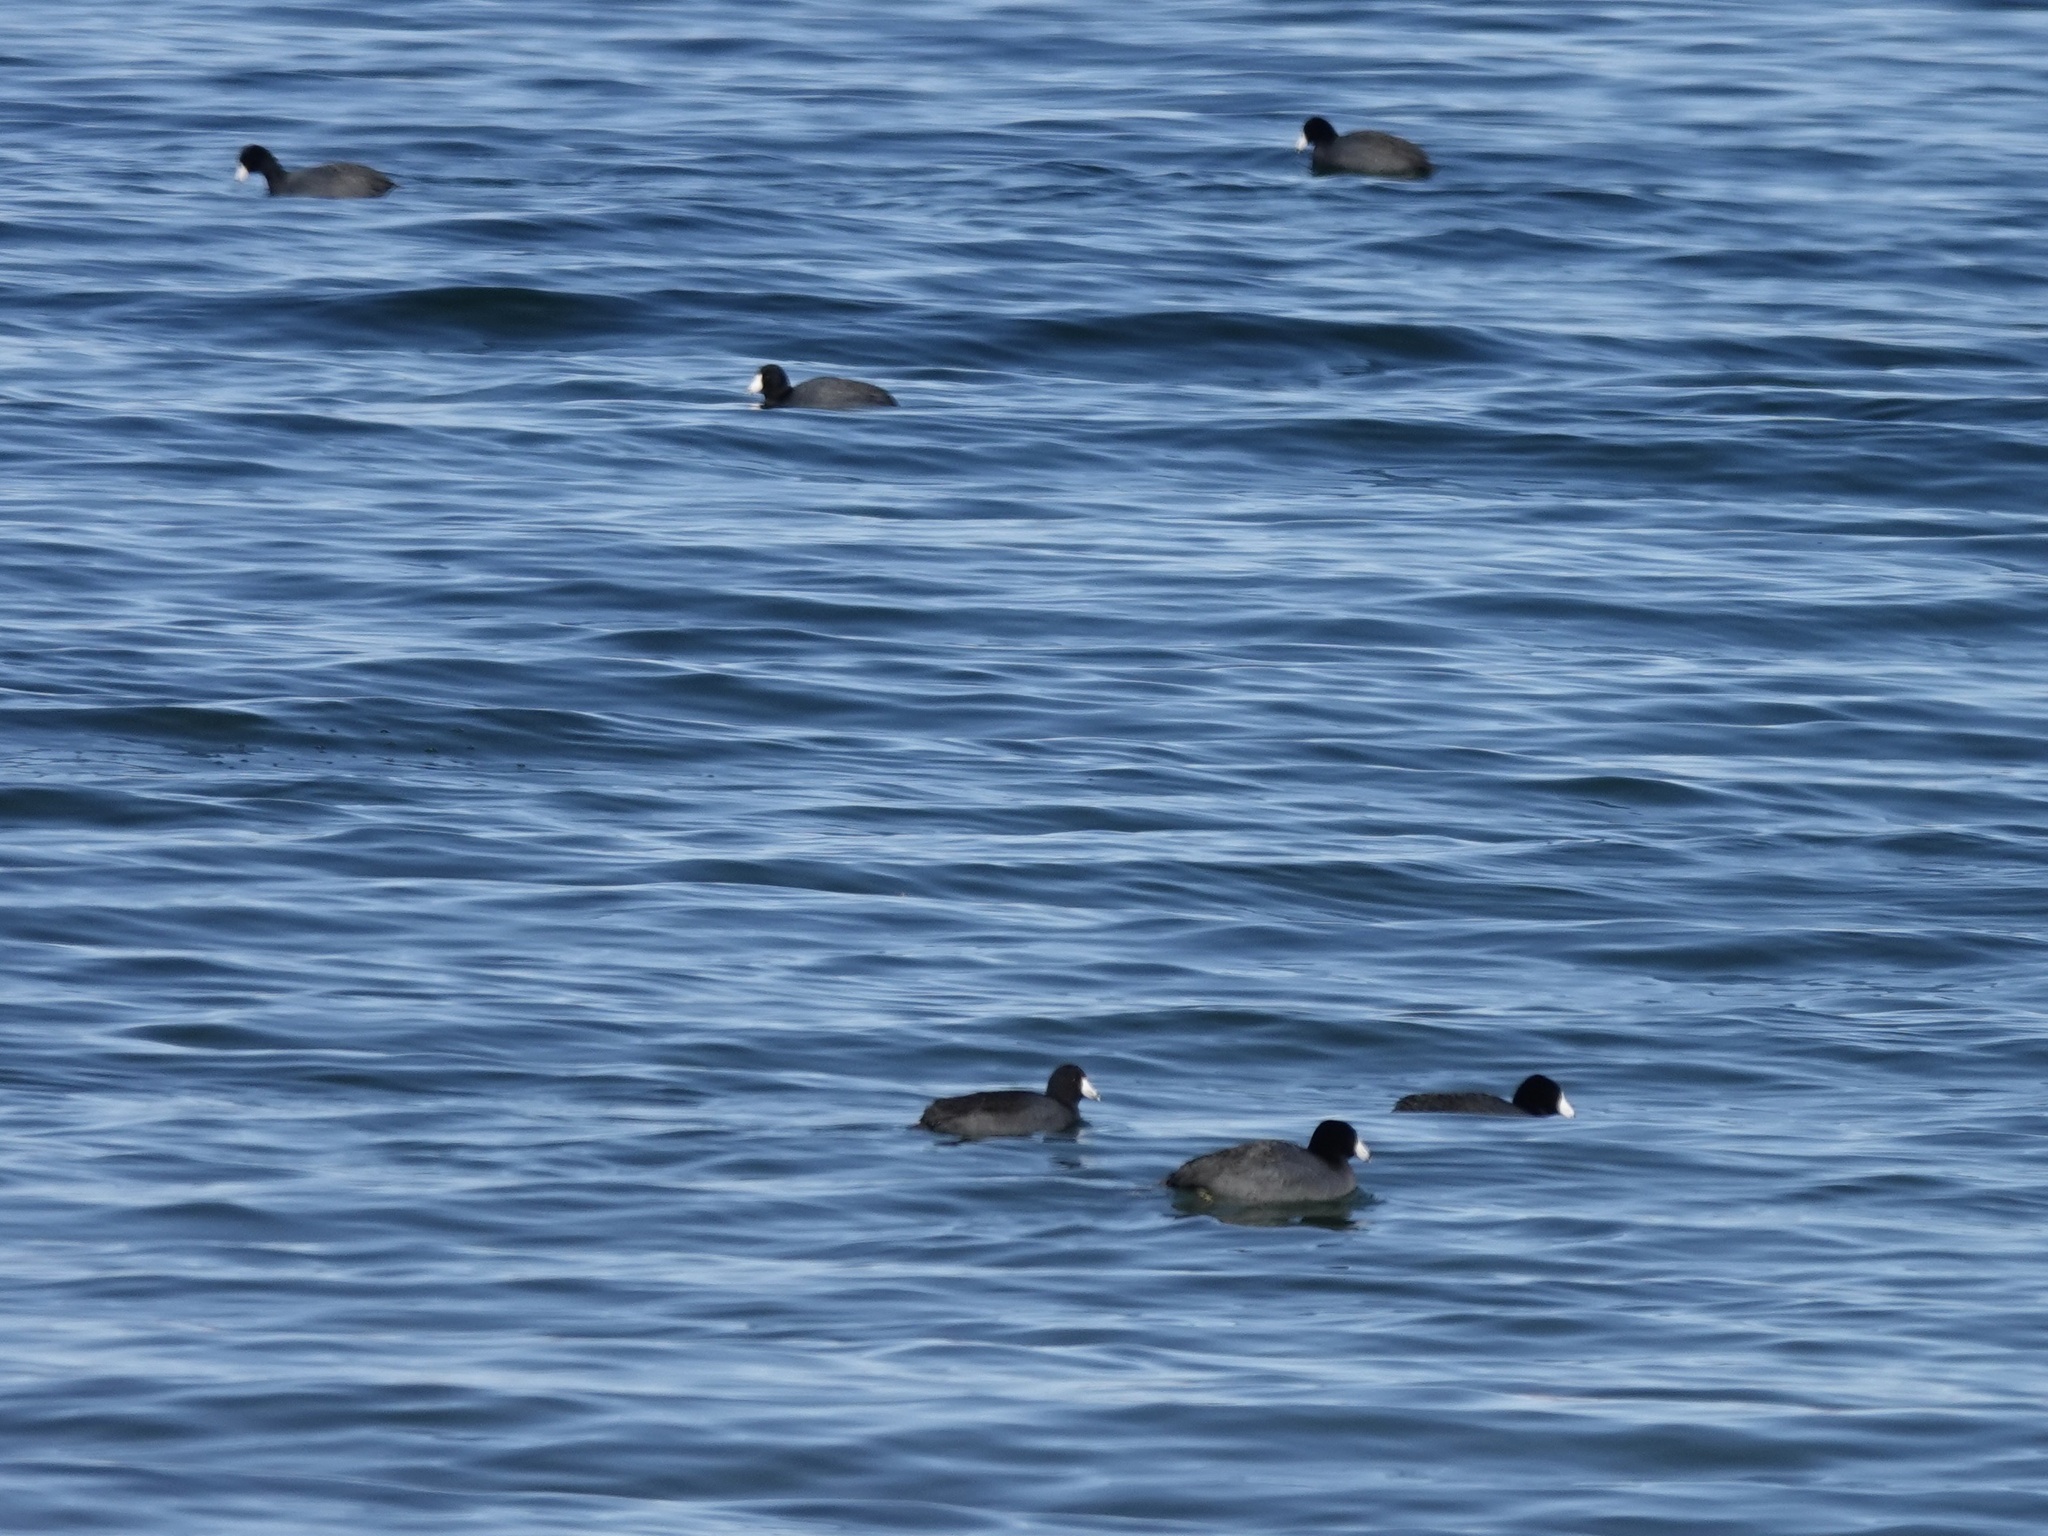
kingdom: Animalia
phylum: Chordata
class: Aves
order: Gruiformes
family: Rallidae
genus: Fulica
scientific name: Fulica americana
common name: American coot
